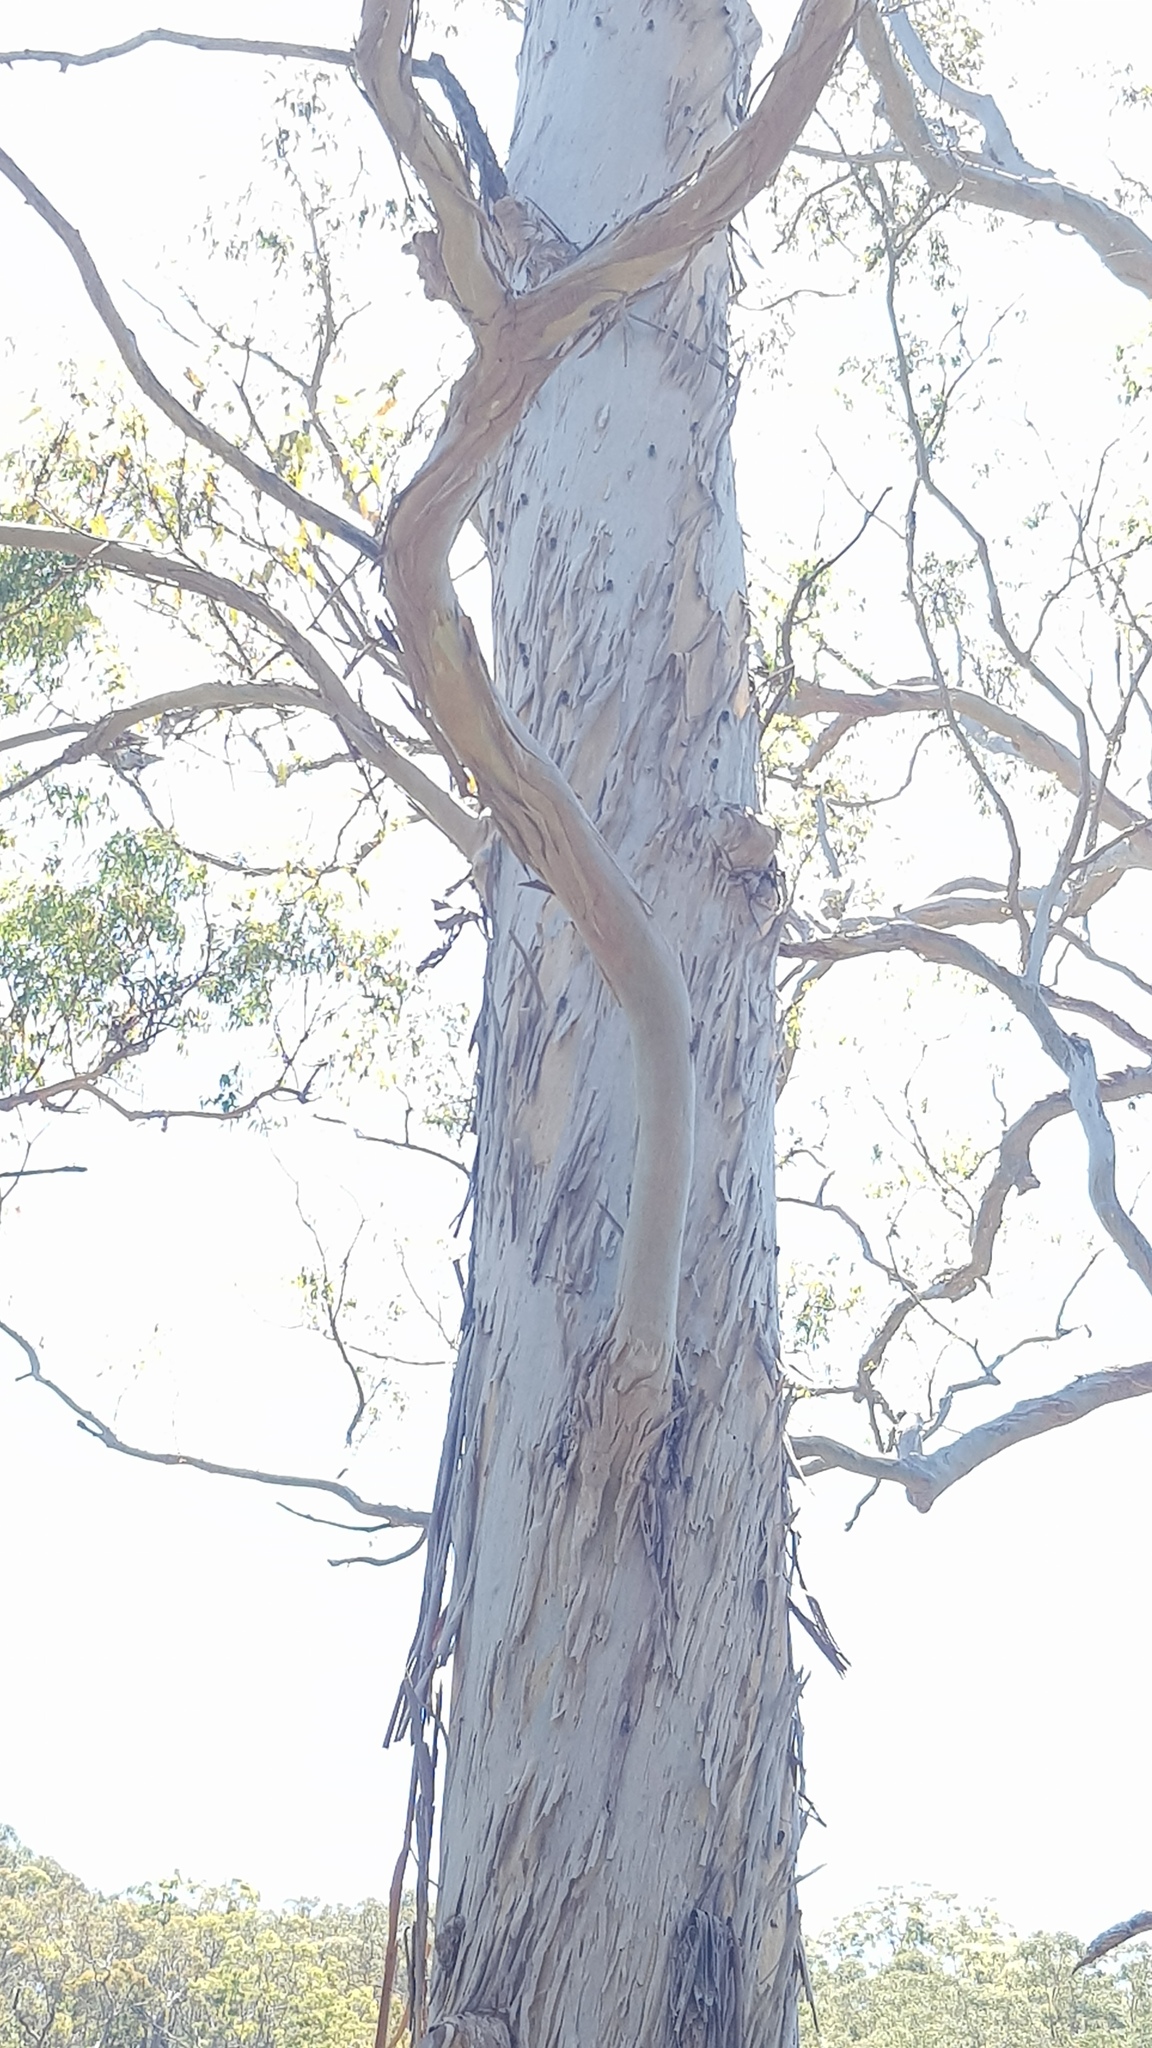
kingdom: Animalia
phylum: Arthropoda
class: Insecta
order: Hemiptera
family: Cicadidae
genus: Aleeta
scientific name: Aleeta curvicosta
